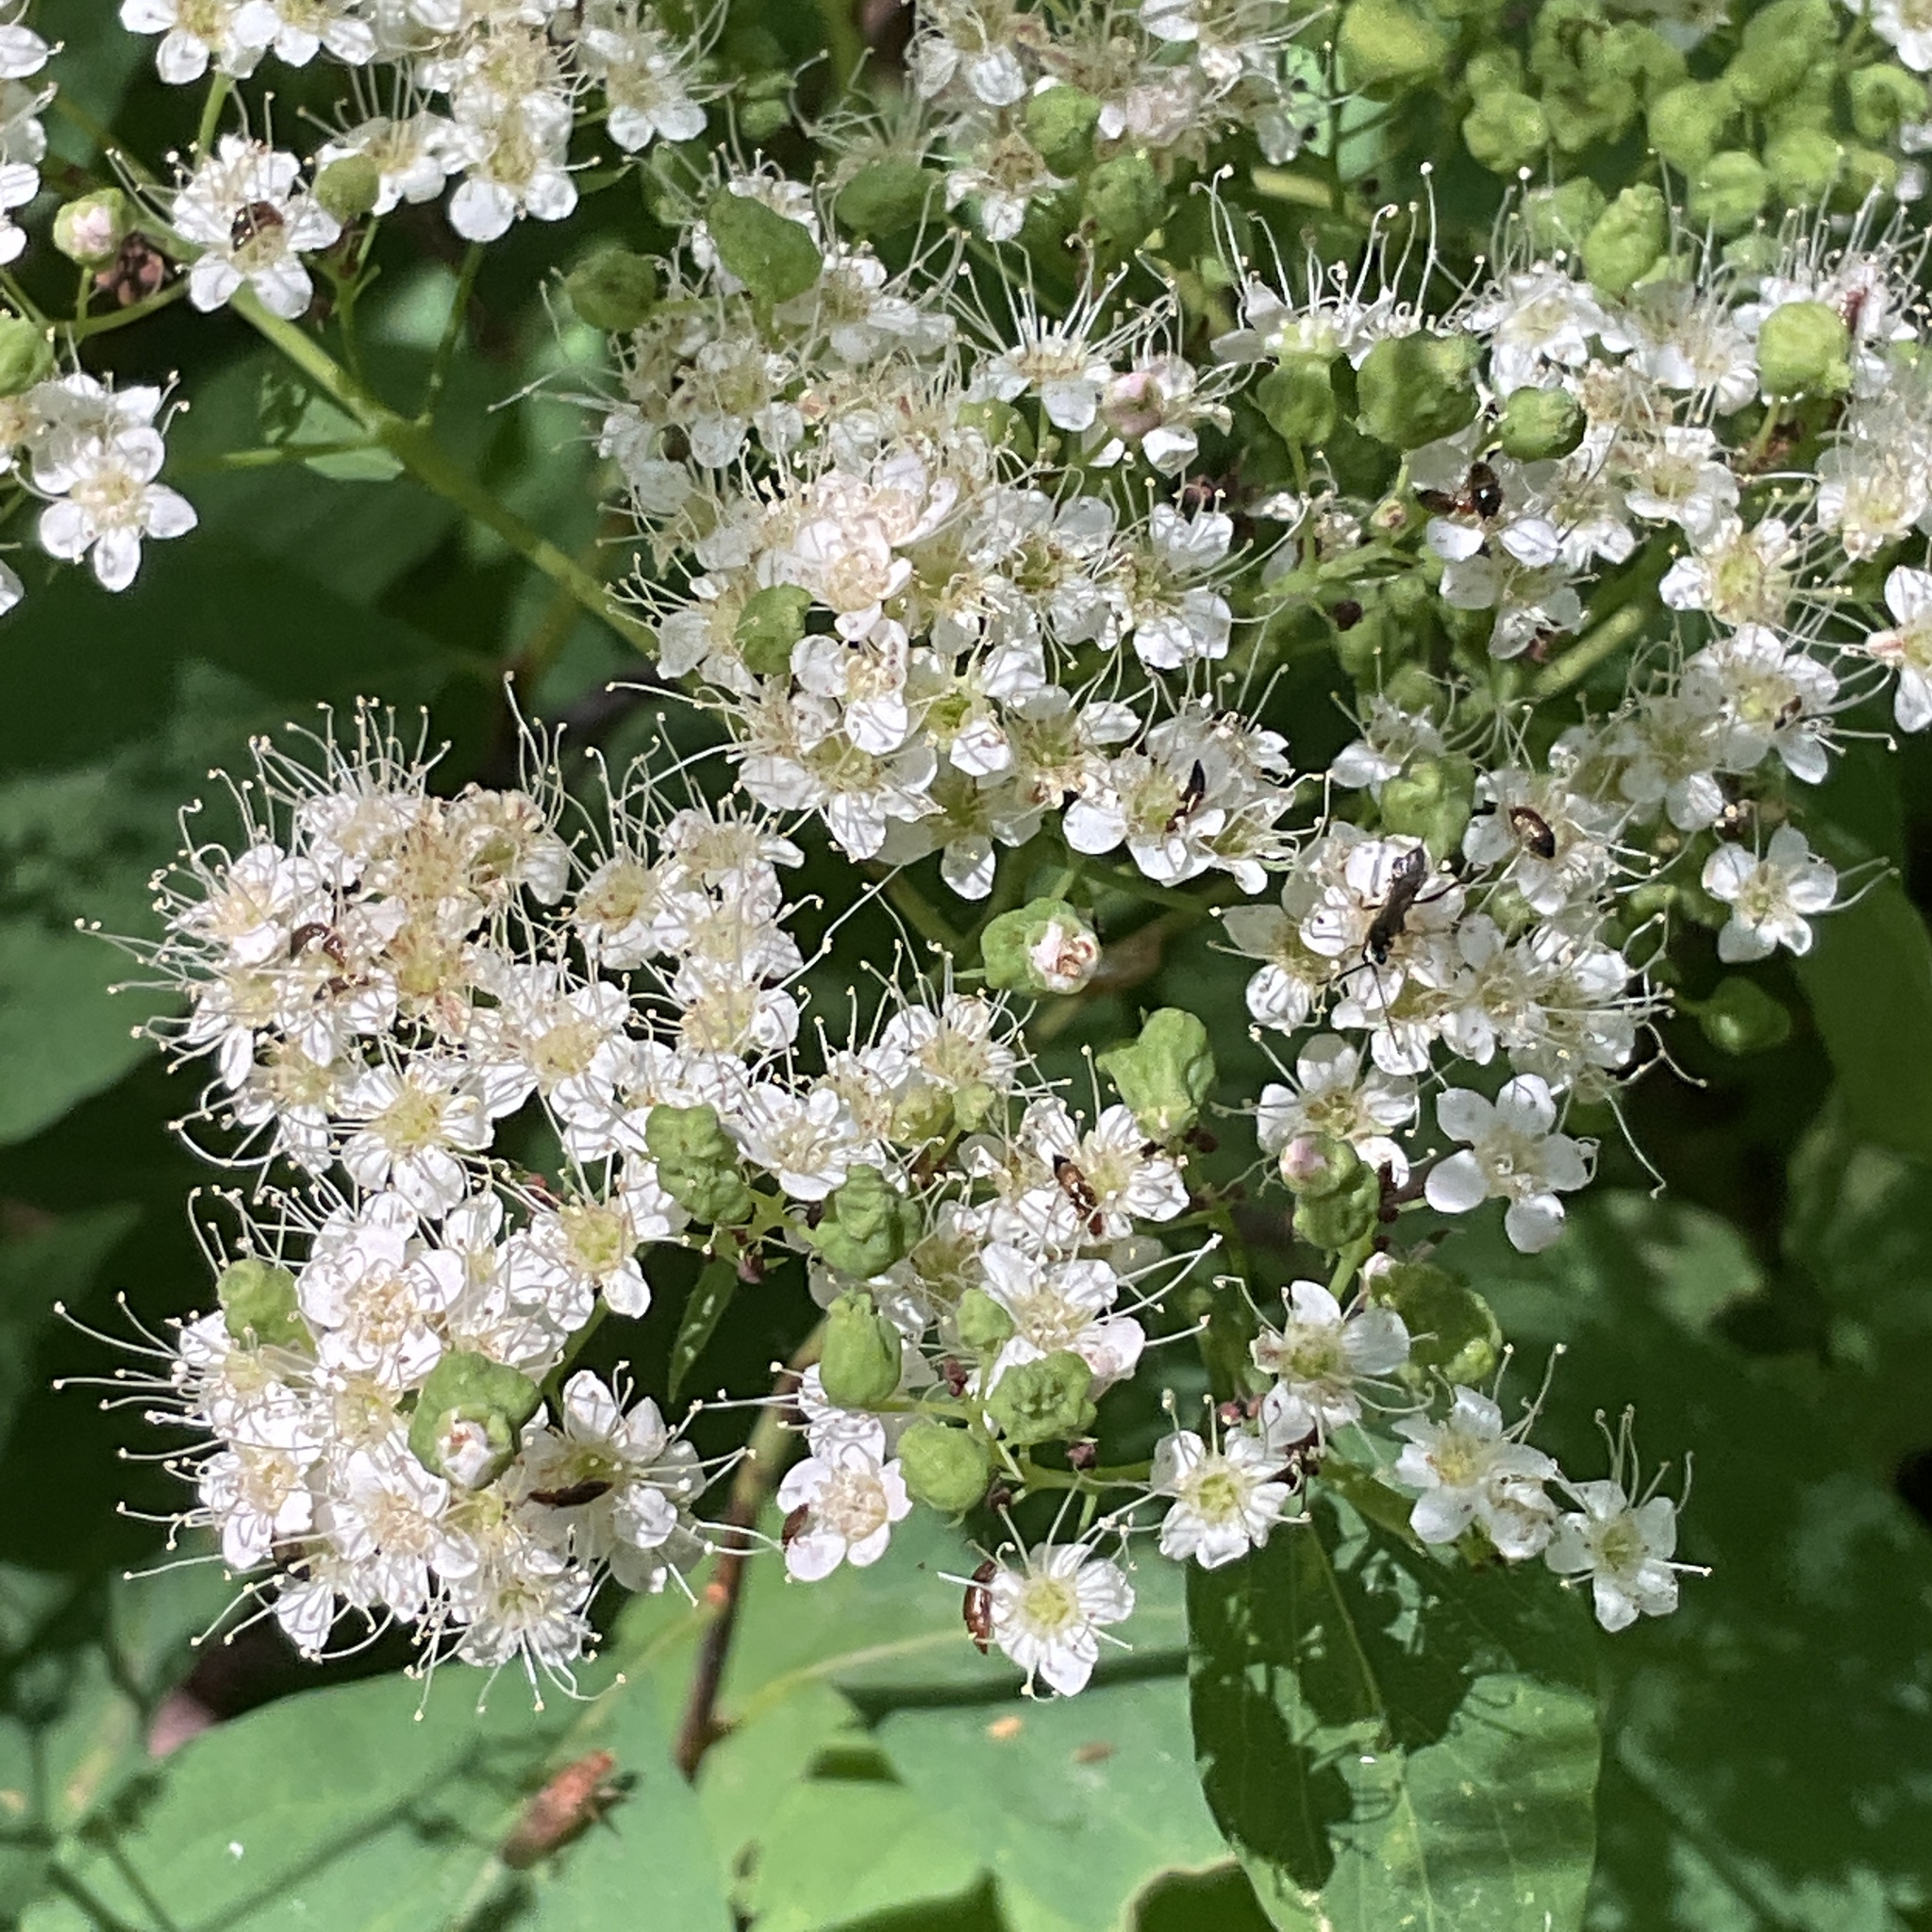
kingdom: Plantae
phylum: Tracheophyta
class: Magnoliopsida
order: Rosales
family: Rosaceae
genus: Spiraea
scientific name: Spiraea lucida
